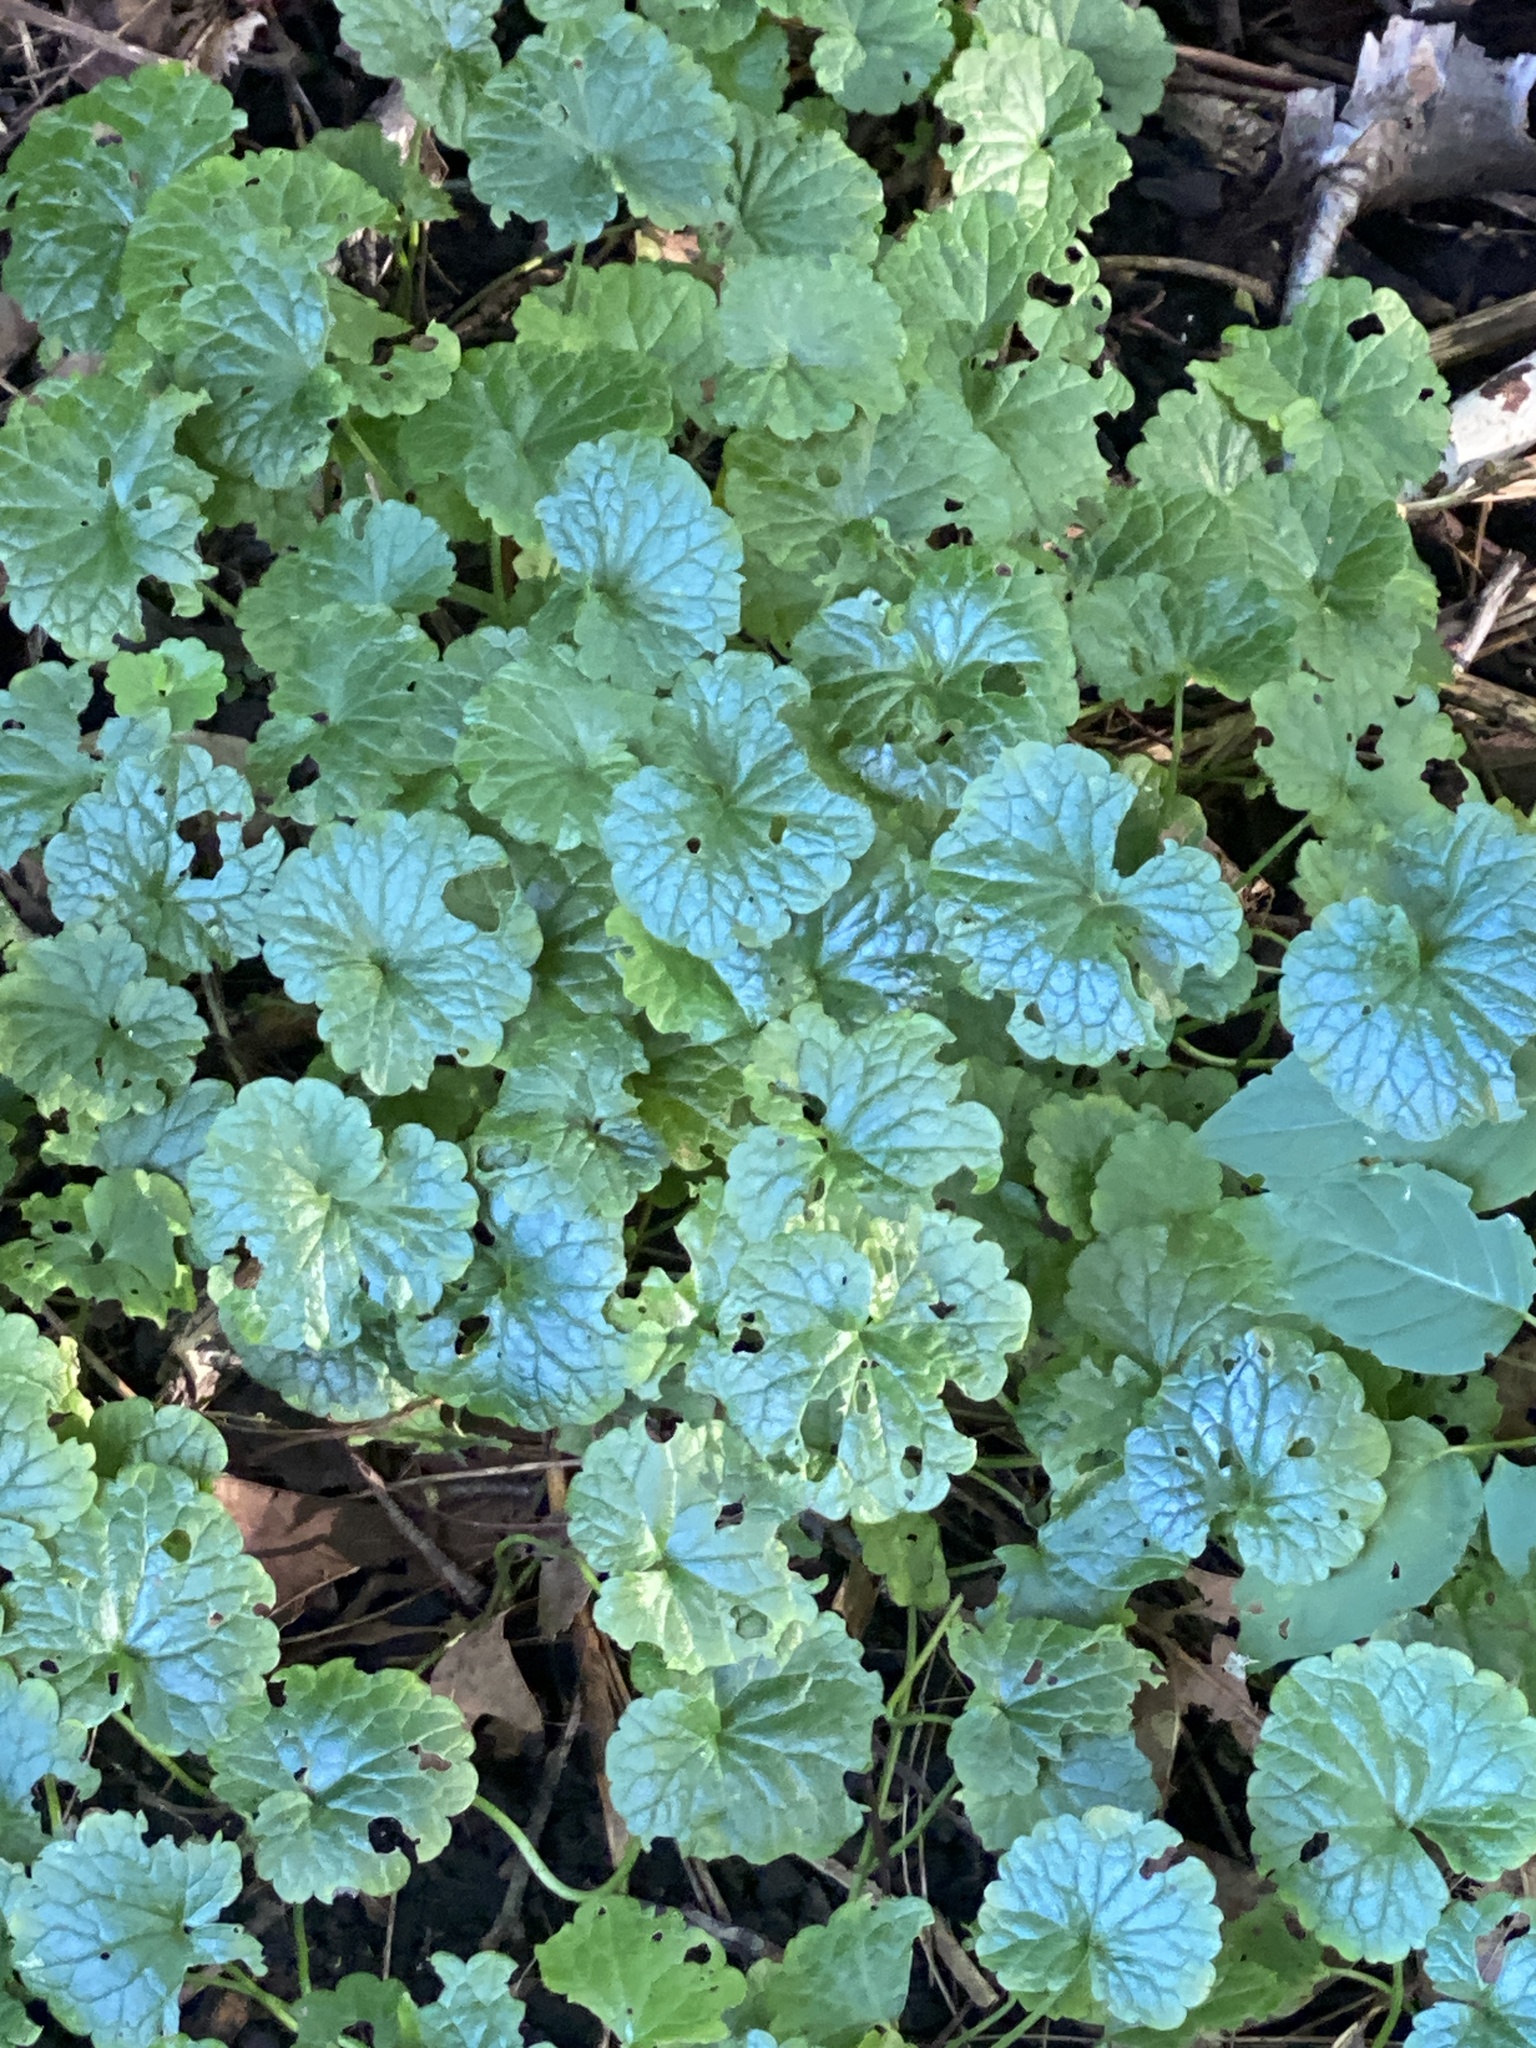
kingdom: Plantae
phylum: Tracheophyta
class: Magnoliopsida
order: Lamiales
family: Lamiaceae
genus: Glechoma
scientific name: Glechoma hederacea
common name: Ground ivy
